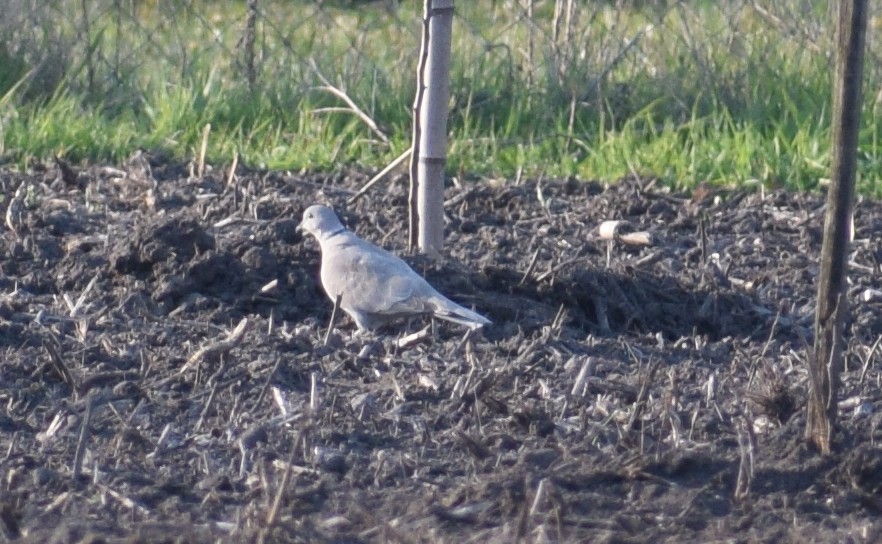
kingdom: Animalia
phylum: Chordata
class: Aves
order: Columbiformes
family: Columbidae
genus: Streptopelia
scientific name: Streptopelia decaocto
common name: Eurasian collared dove
